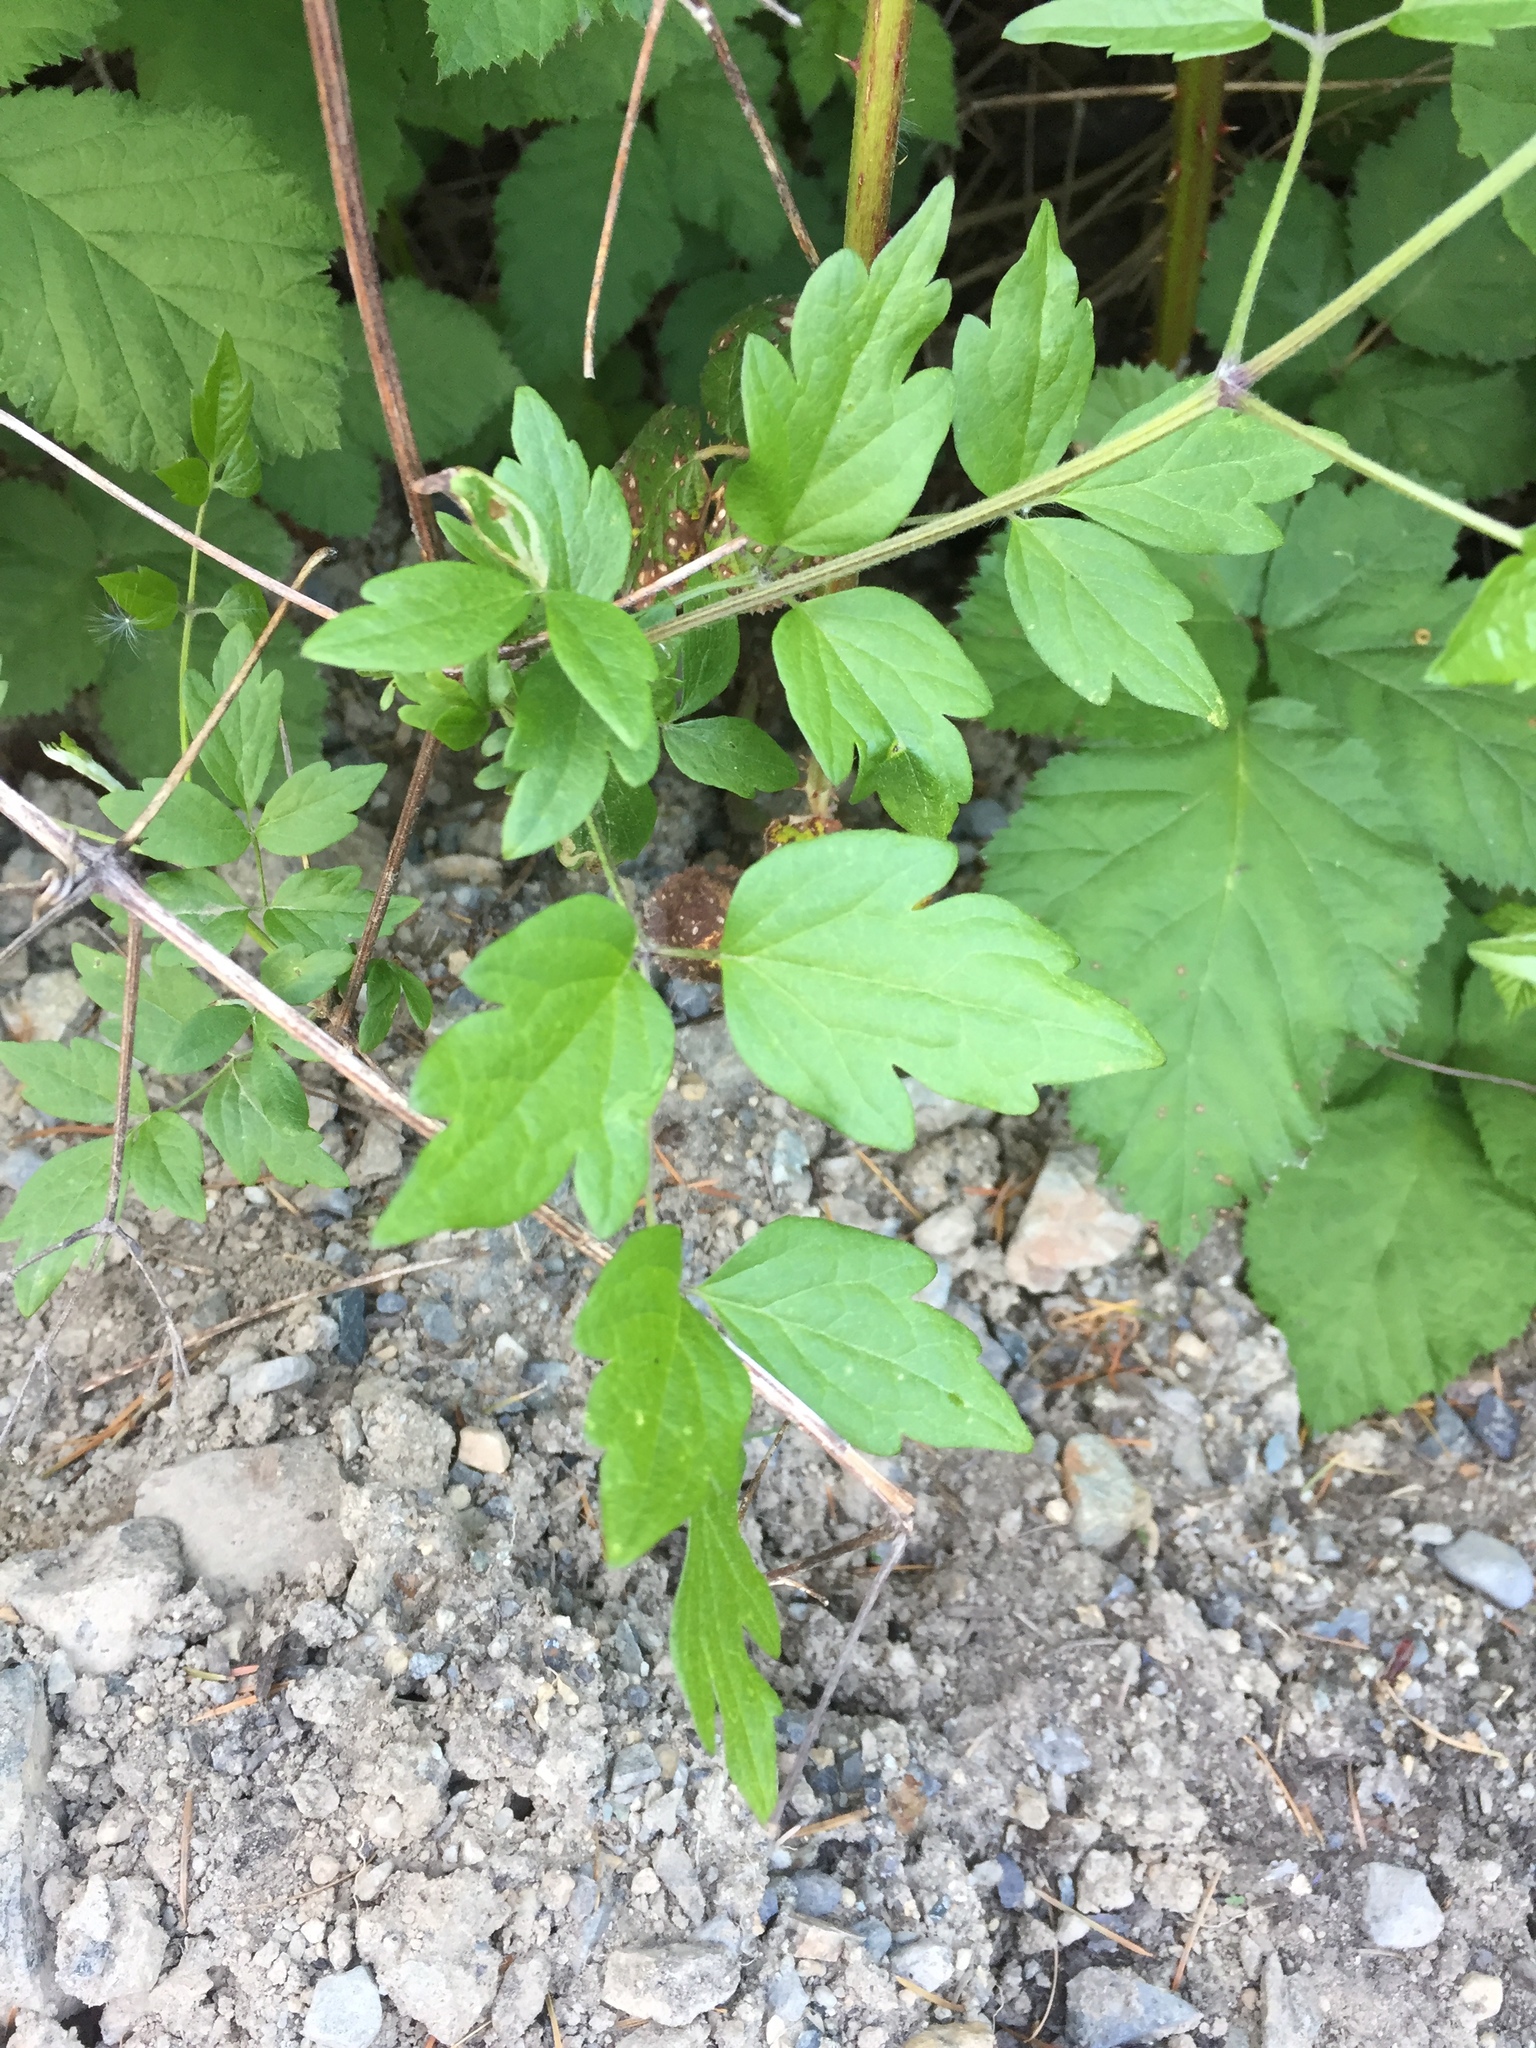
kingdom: Plantae
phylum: Tracheophyta
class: Magnoliopsida
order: Ranunculales
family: Ranunculaceae
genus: Clematis
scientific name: Clematis vitalba
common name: Evergreen clematis
